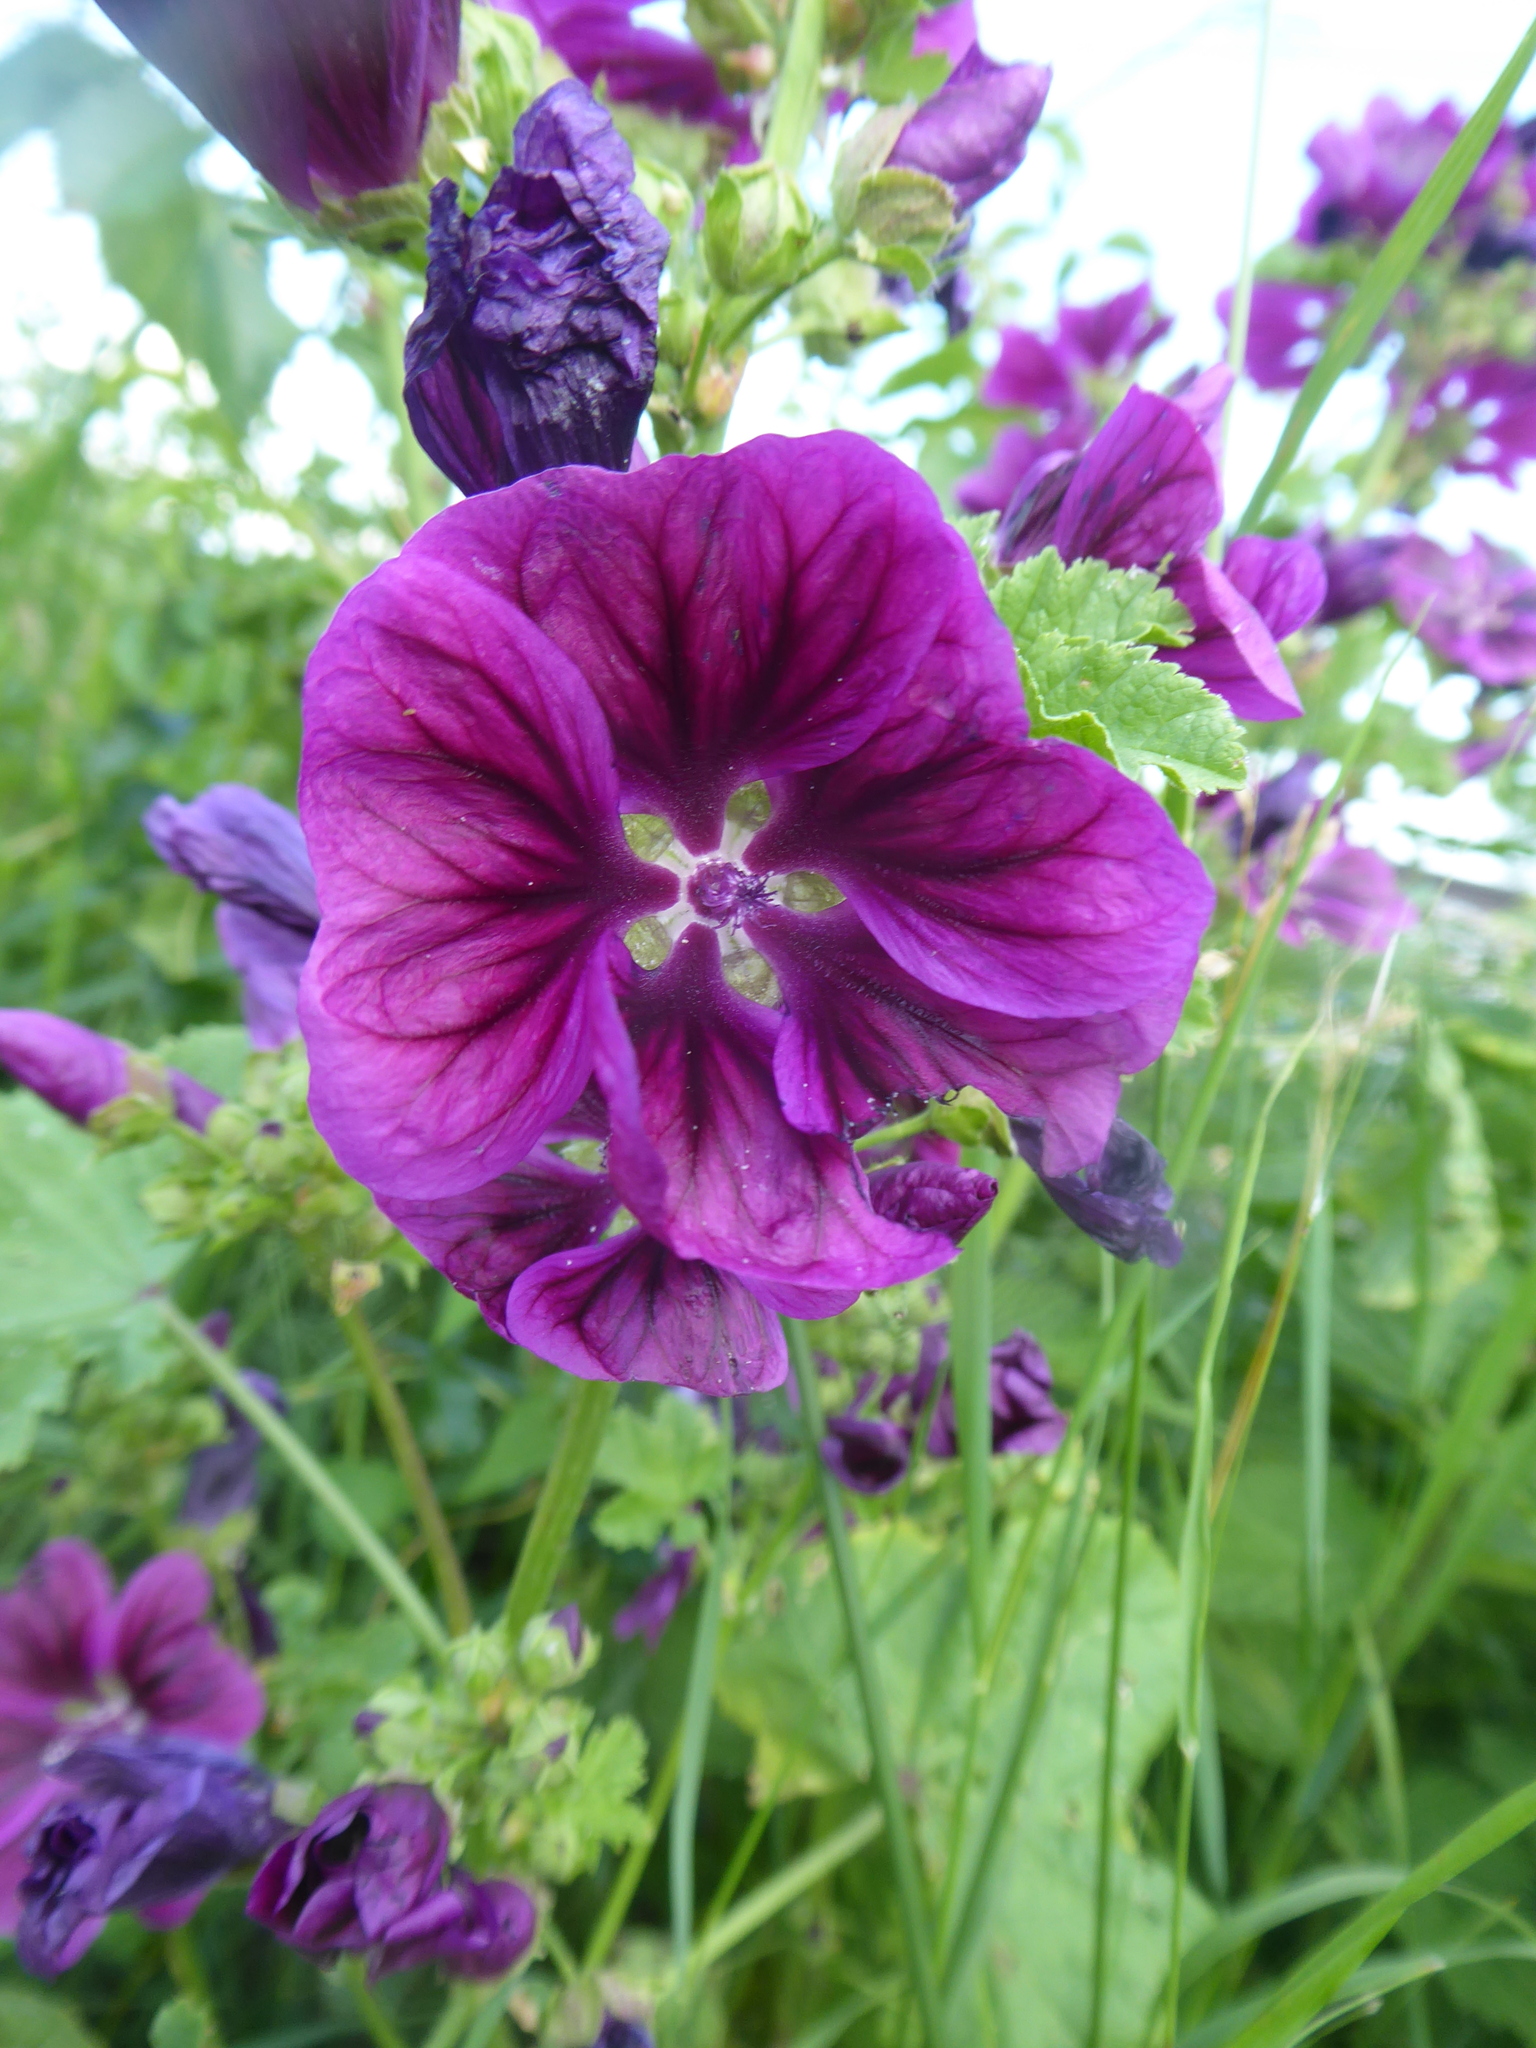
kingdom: Plantae
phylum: Tracheophyta
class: Magnoliopsida
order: Malvales
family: Malvaceae
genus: Malva
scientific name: Malva sylvestris
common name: Common mallow
